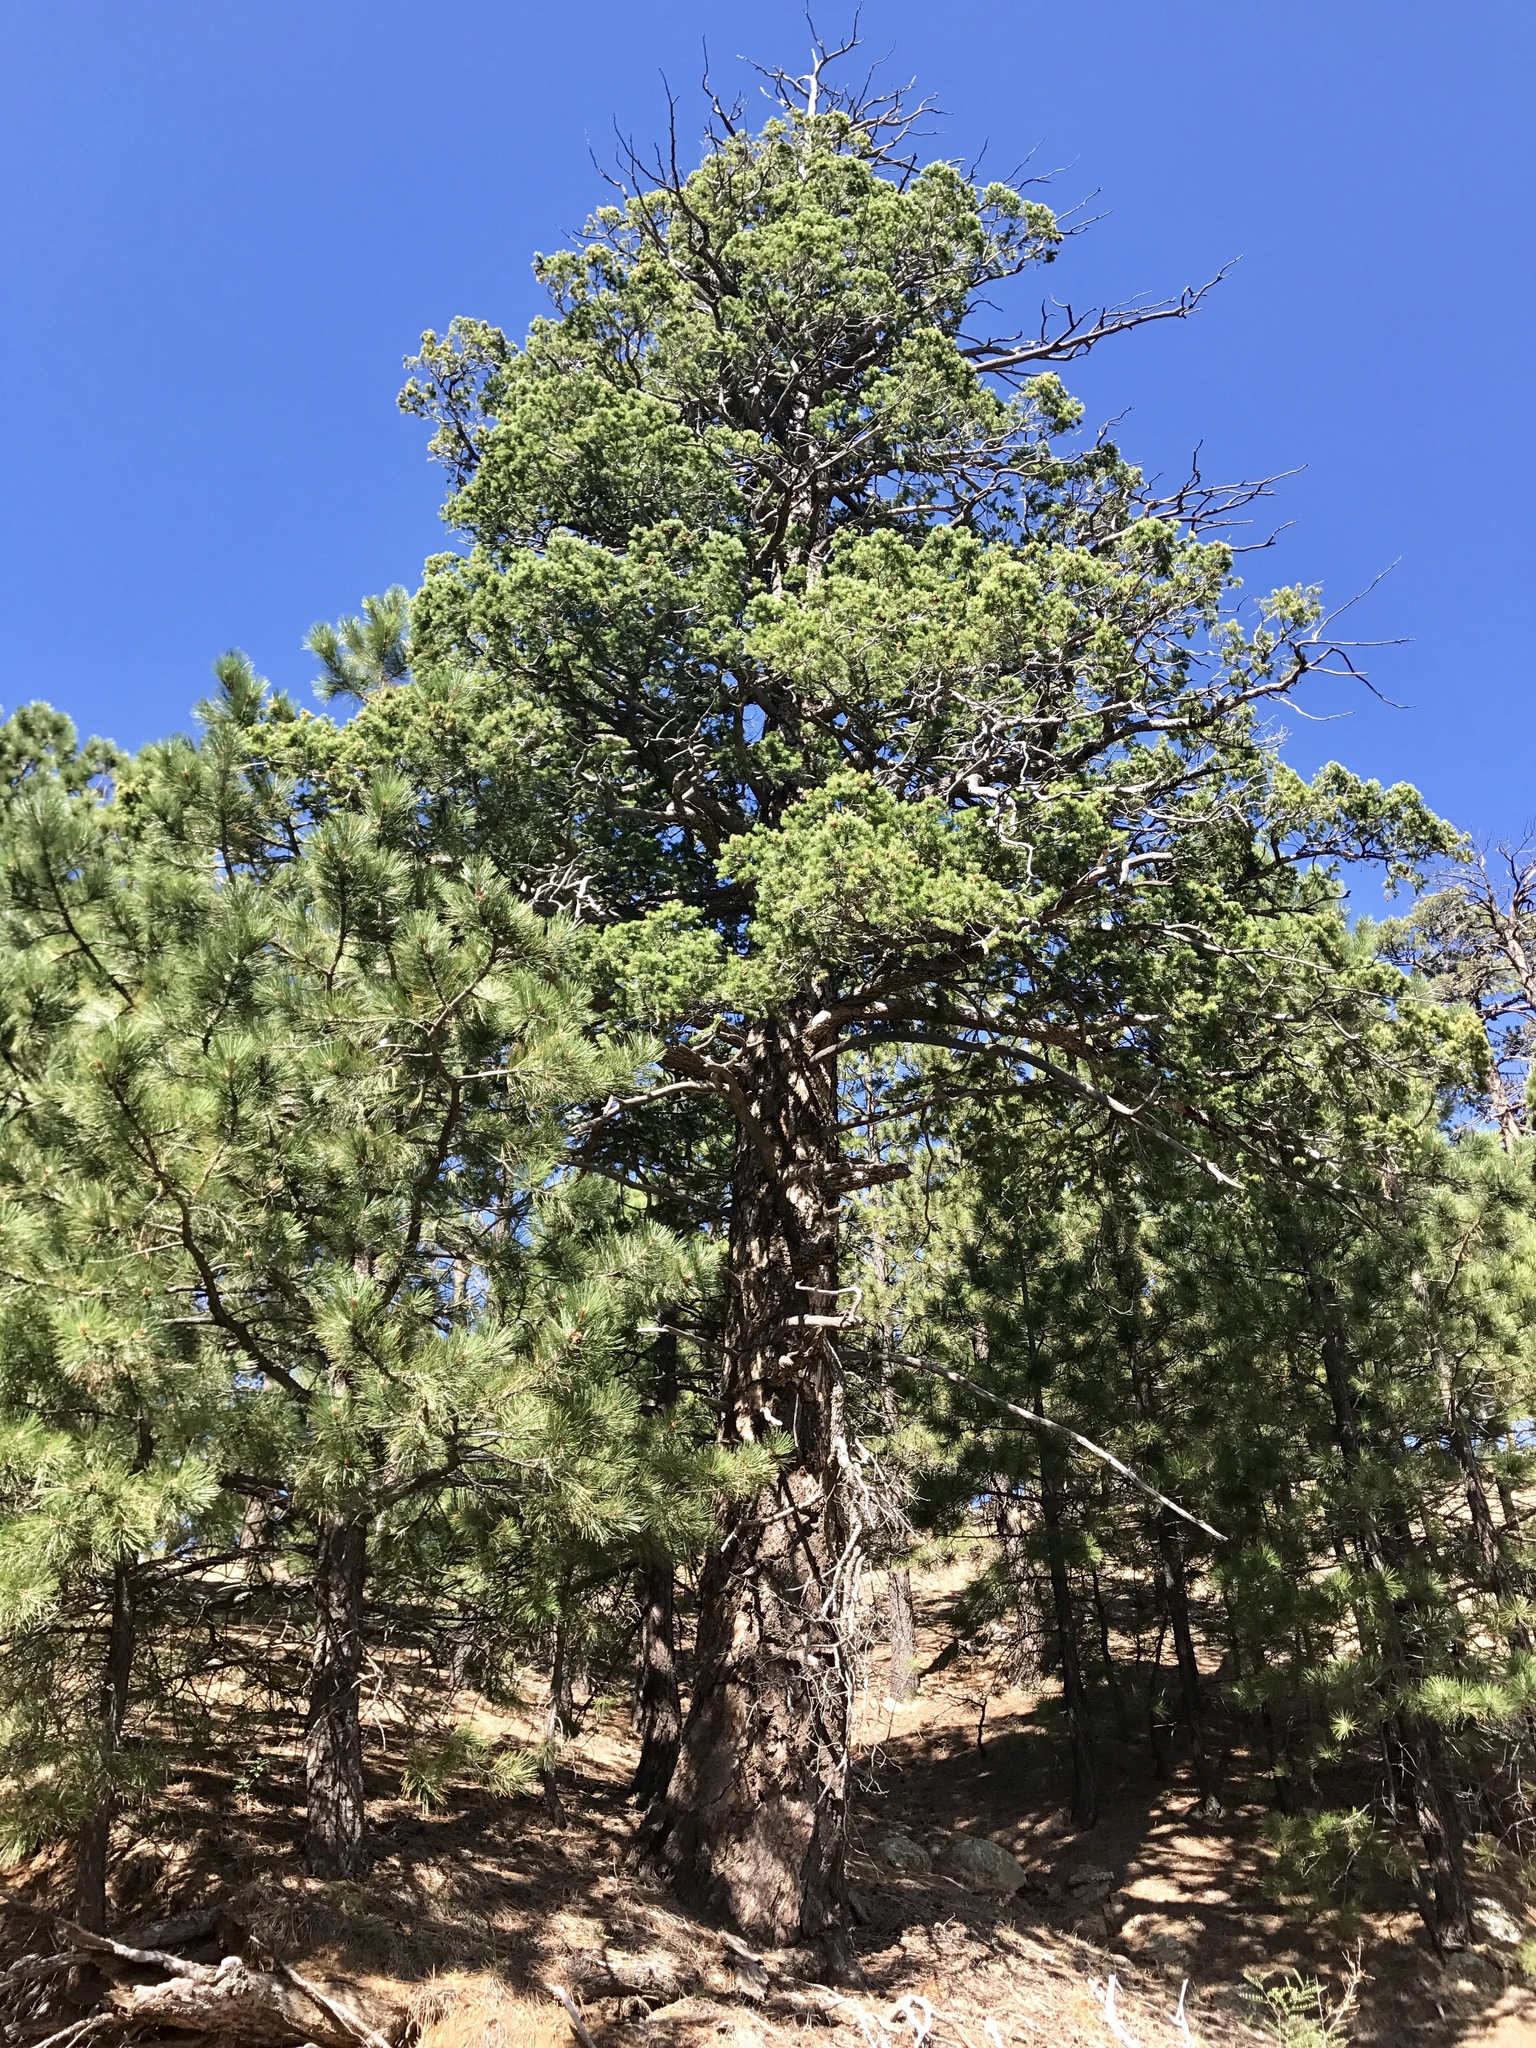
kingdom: Plantae
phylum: Tracheophyta
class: Pinopsida
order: Pinales
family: Pinaceae
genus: Pseudotsuga
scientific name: Pseudotsuga menziesii
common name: Douglas fir
